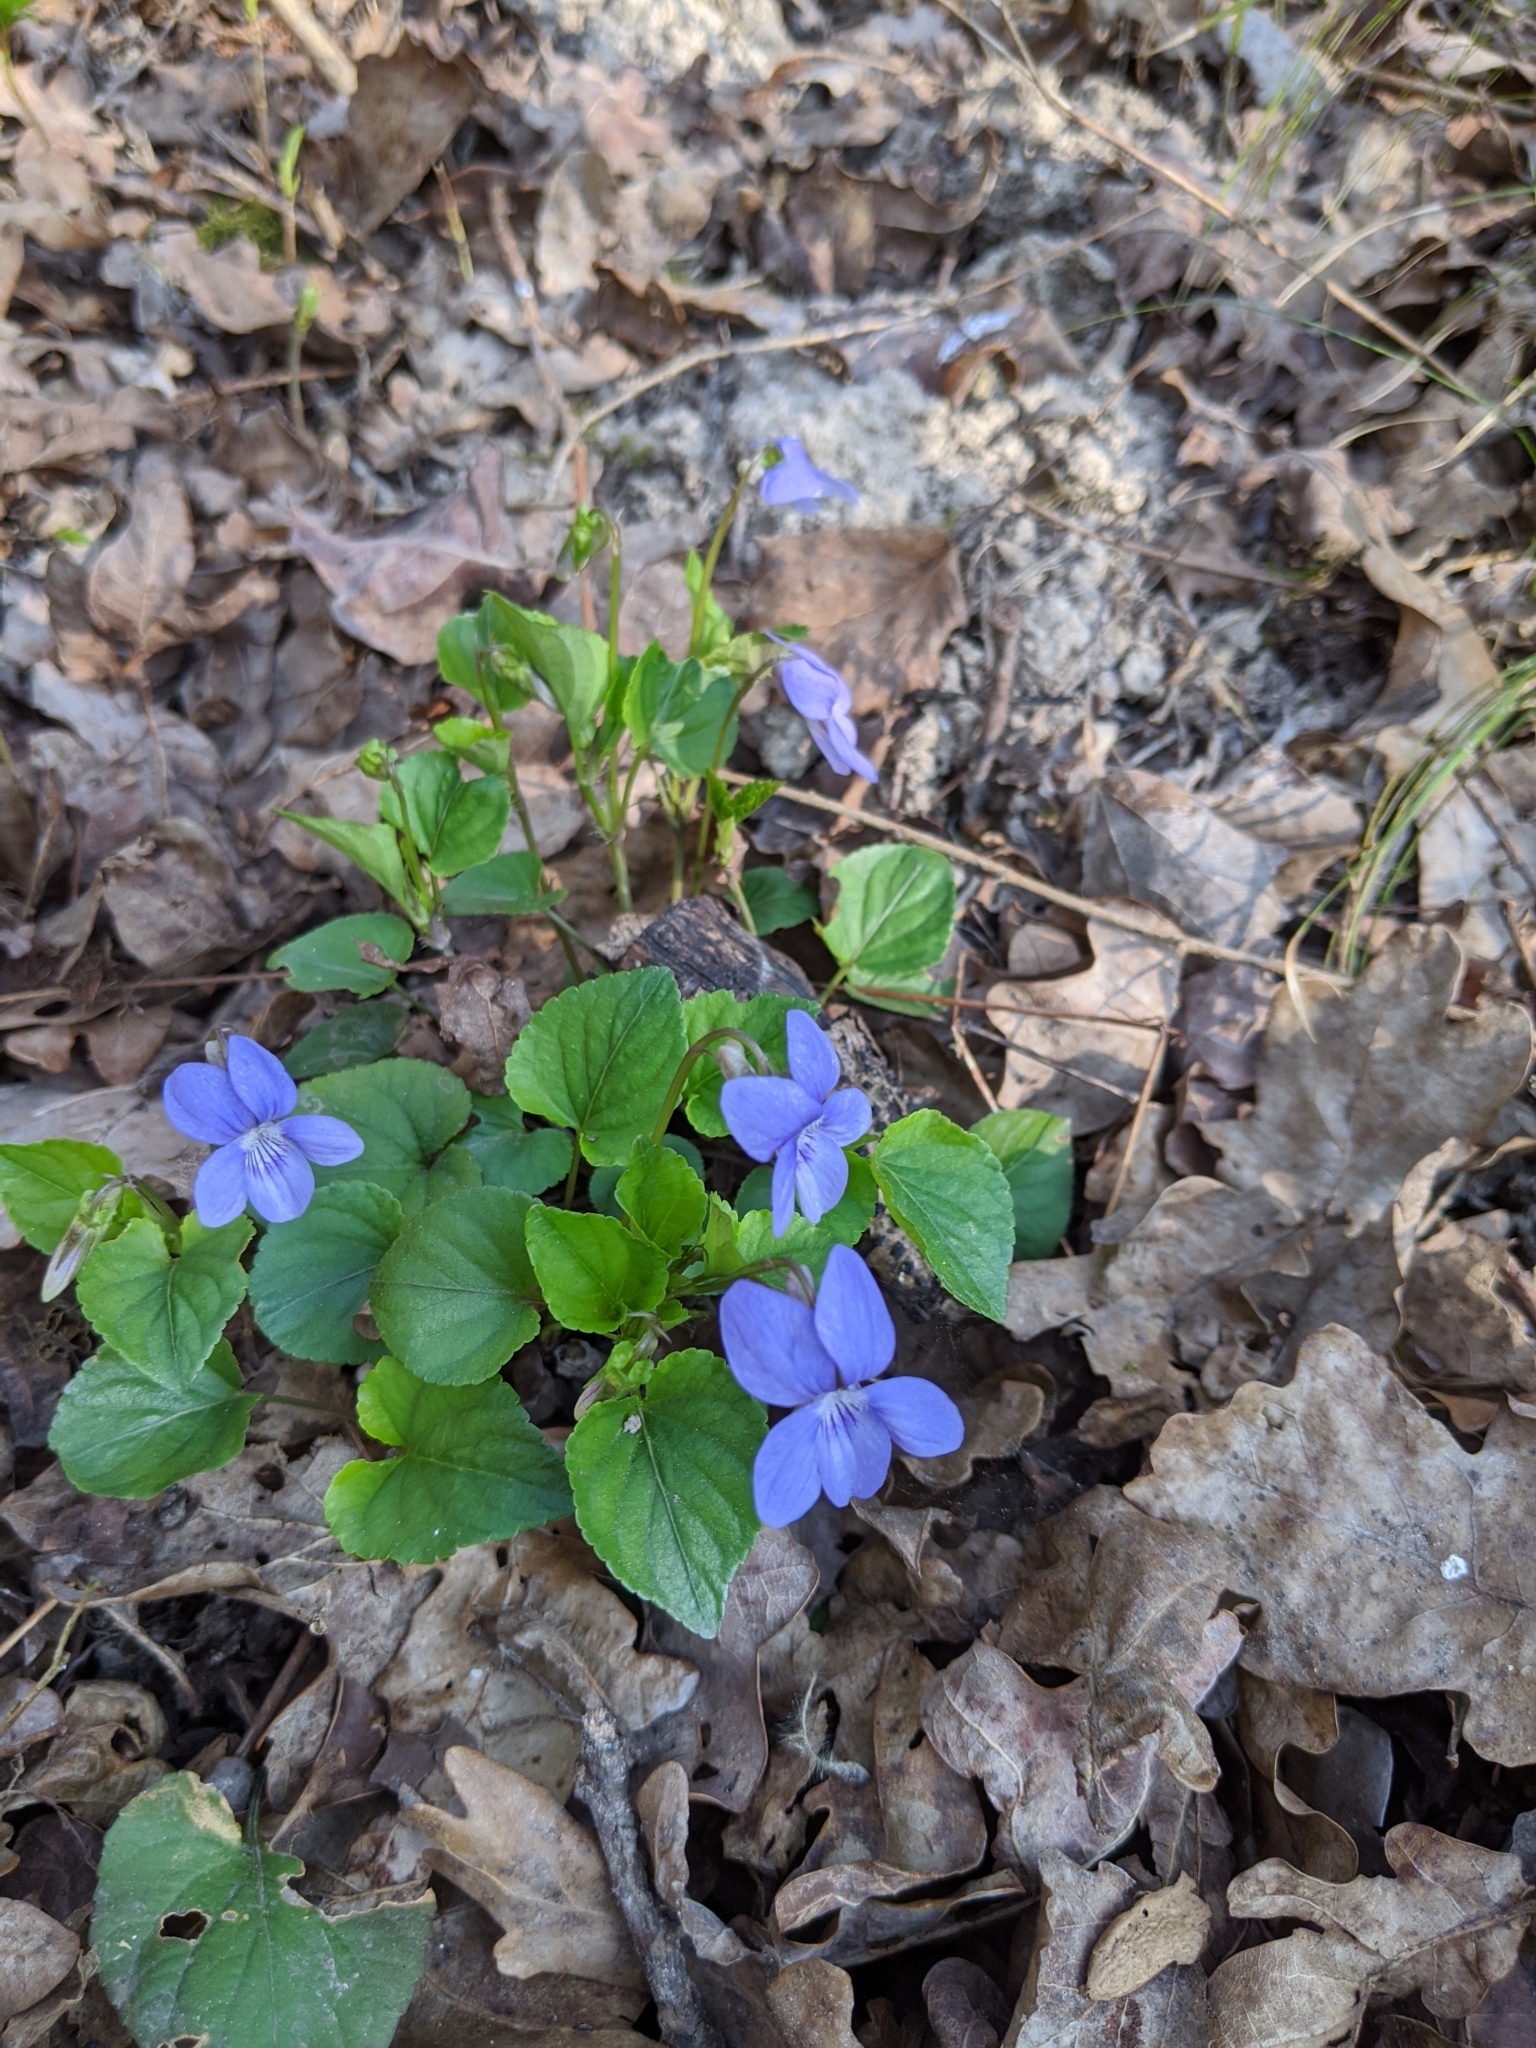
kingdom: Plantae
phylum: Tracheophyta
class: Magnoliopsida
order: Malpighiales
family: Violaceae
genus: Viola
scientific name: Viola reichenbachiana
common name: Early dog-violet
